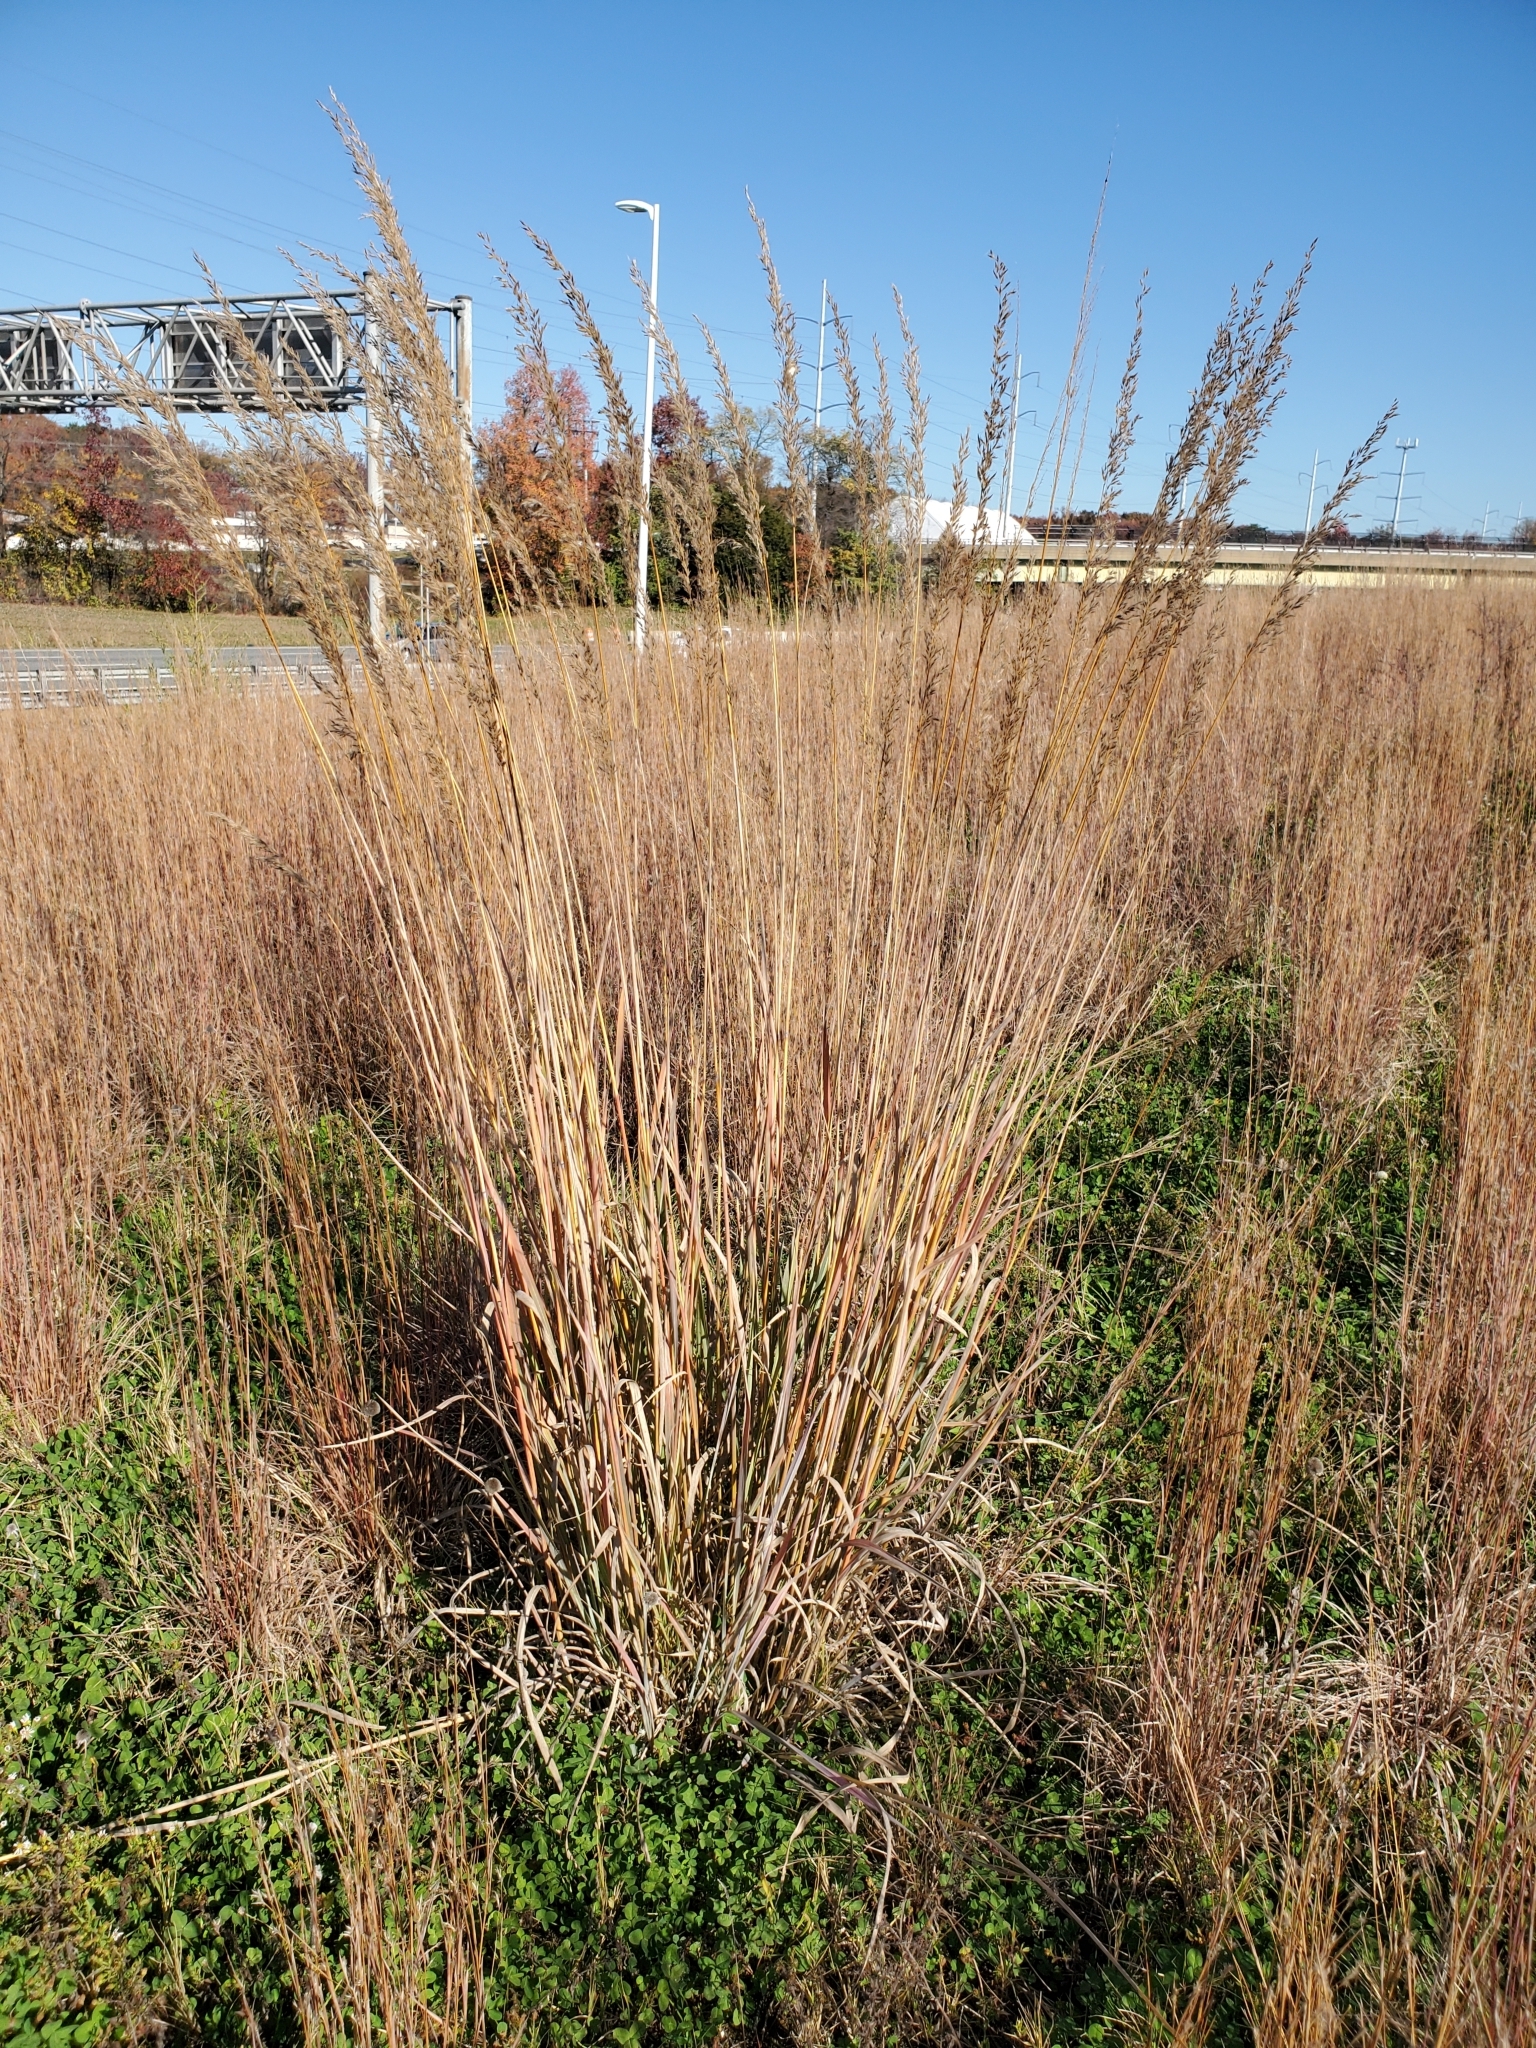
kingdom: Plantae
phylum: Tracheophyta
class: Liliopsida
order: Poales
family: Poaceae
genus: Sorghastrum
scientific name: Sorghastrum nutans
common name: Indian grass
